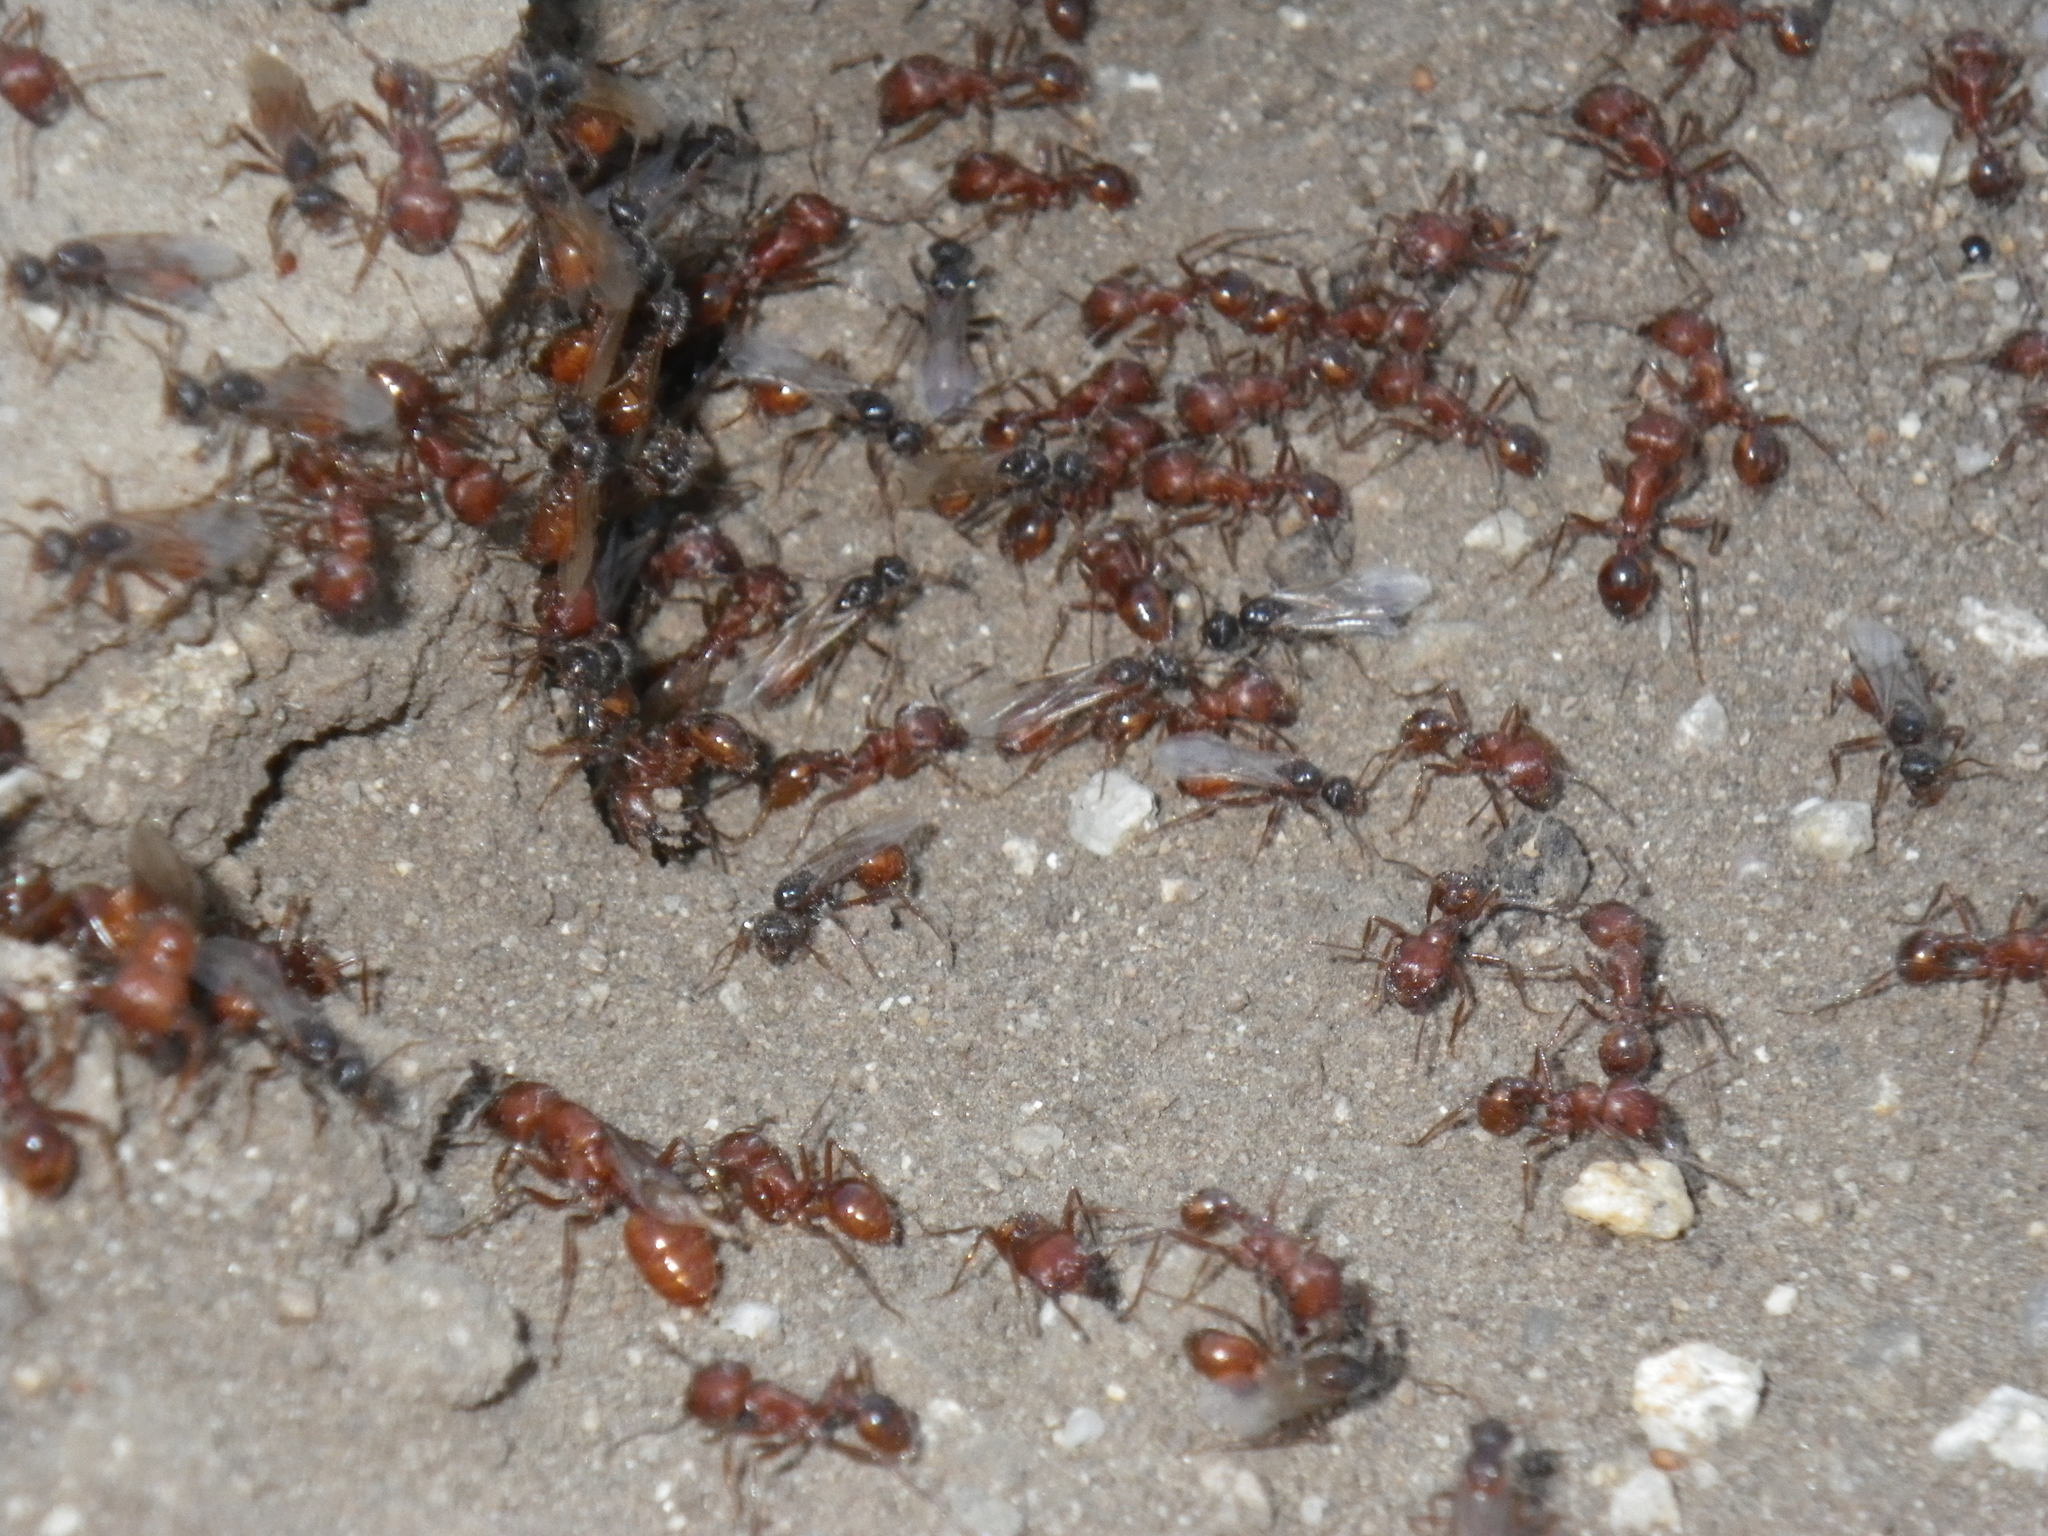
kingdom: Animalia
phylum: Arthropoda
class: Insecta
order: Hymenoptera
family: Formicidae
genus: Pogonomyrmex
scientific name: Pogonomyrmex subnitidus
